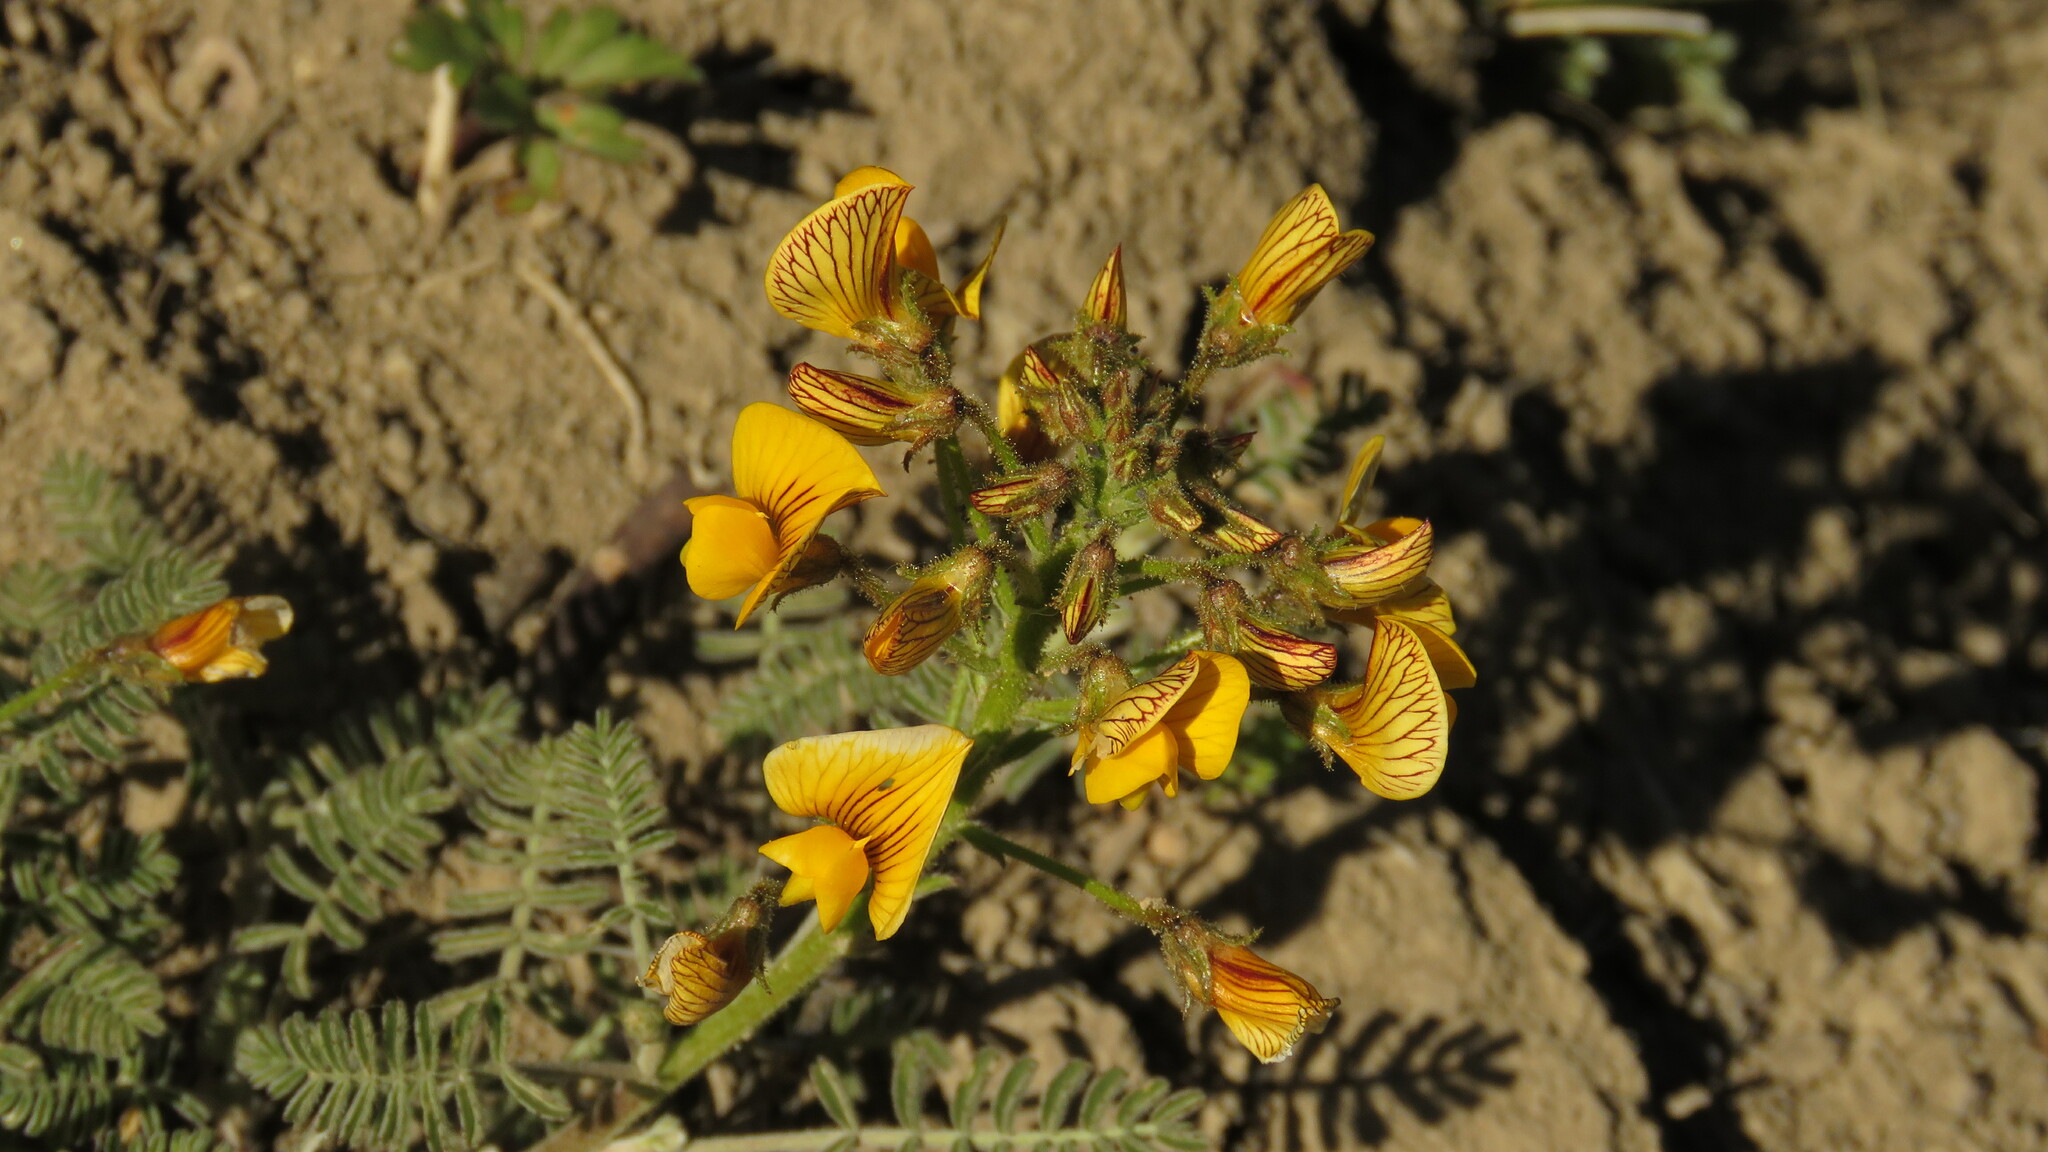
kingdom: Plantae
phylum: Tracheophyta
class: Magnoliopsida
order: Fabales
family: Fabaceae
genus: Adesmia
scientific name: Adesmia corymbosa
